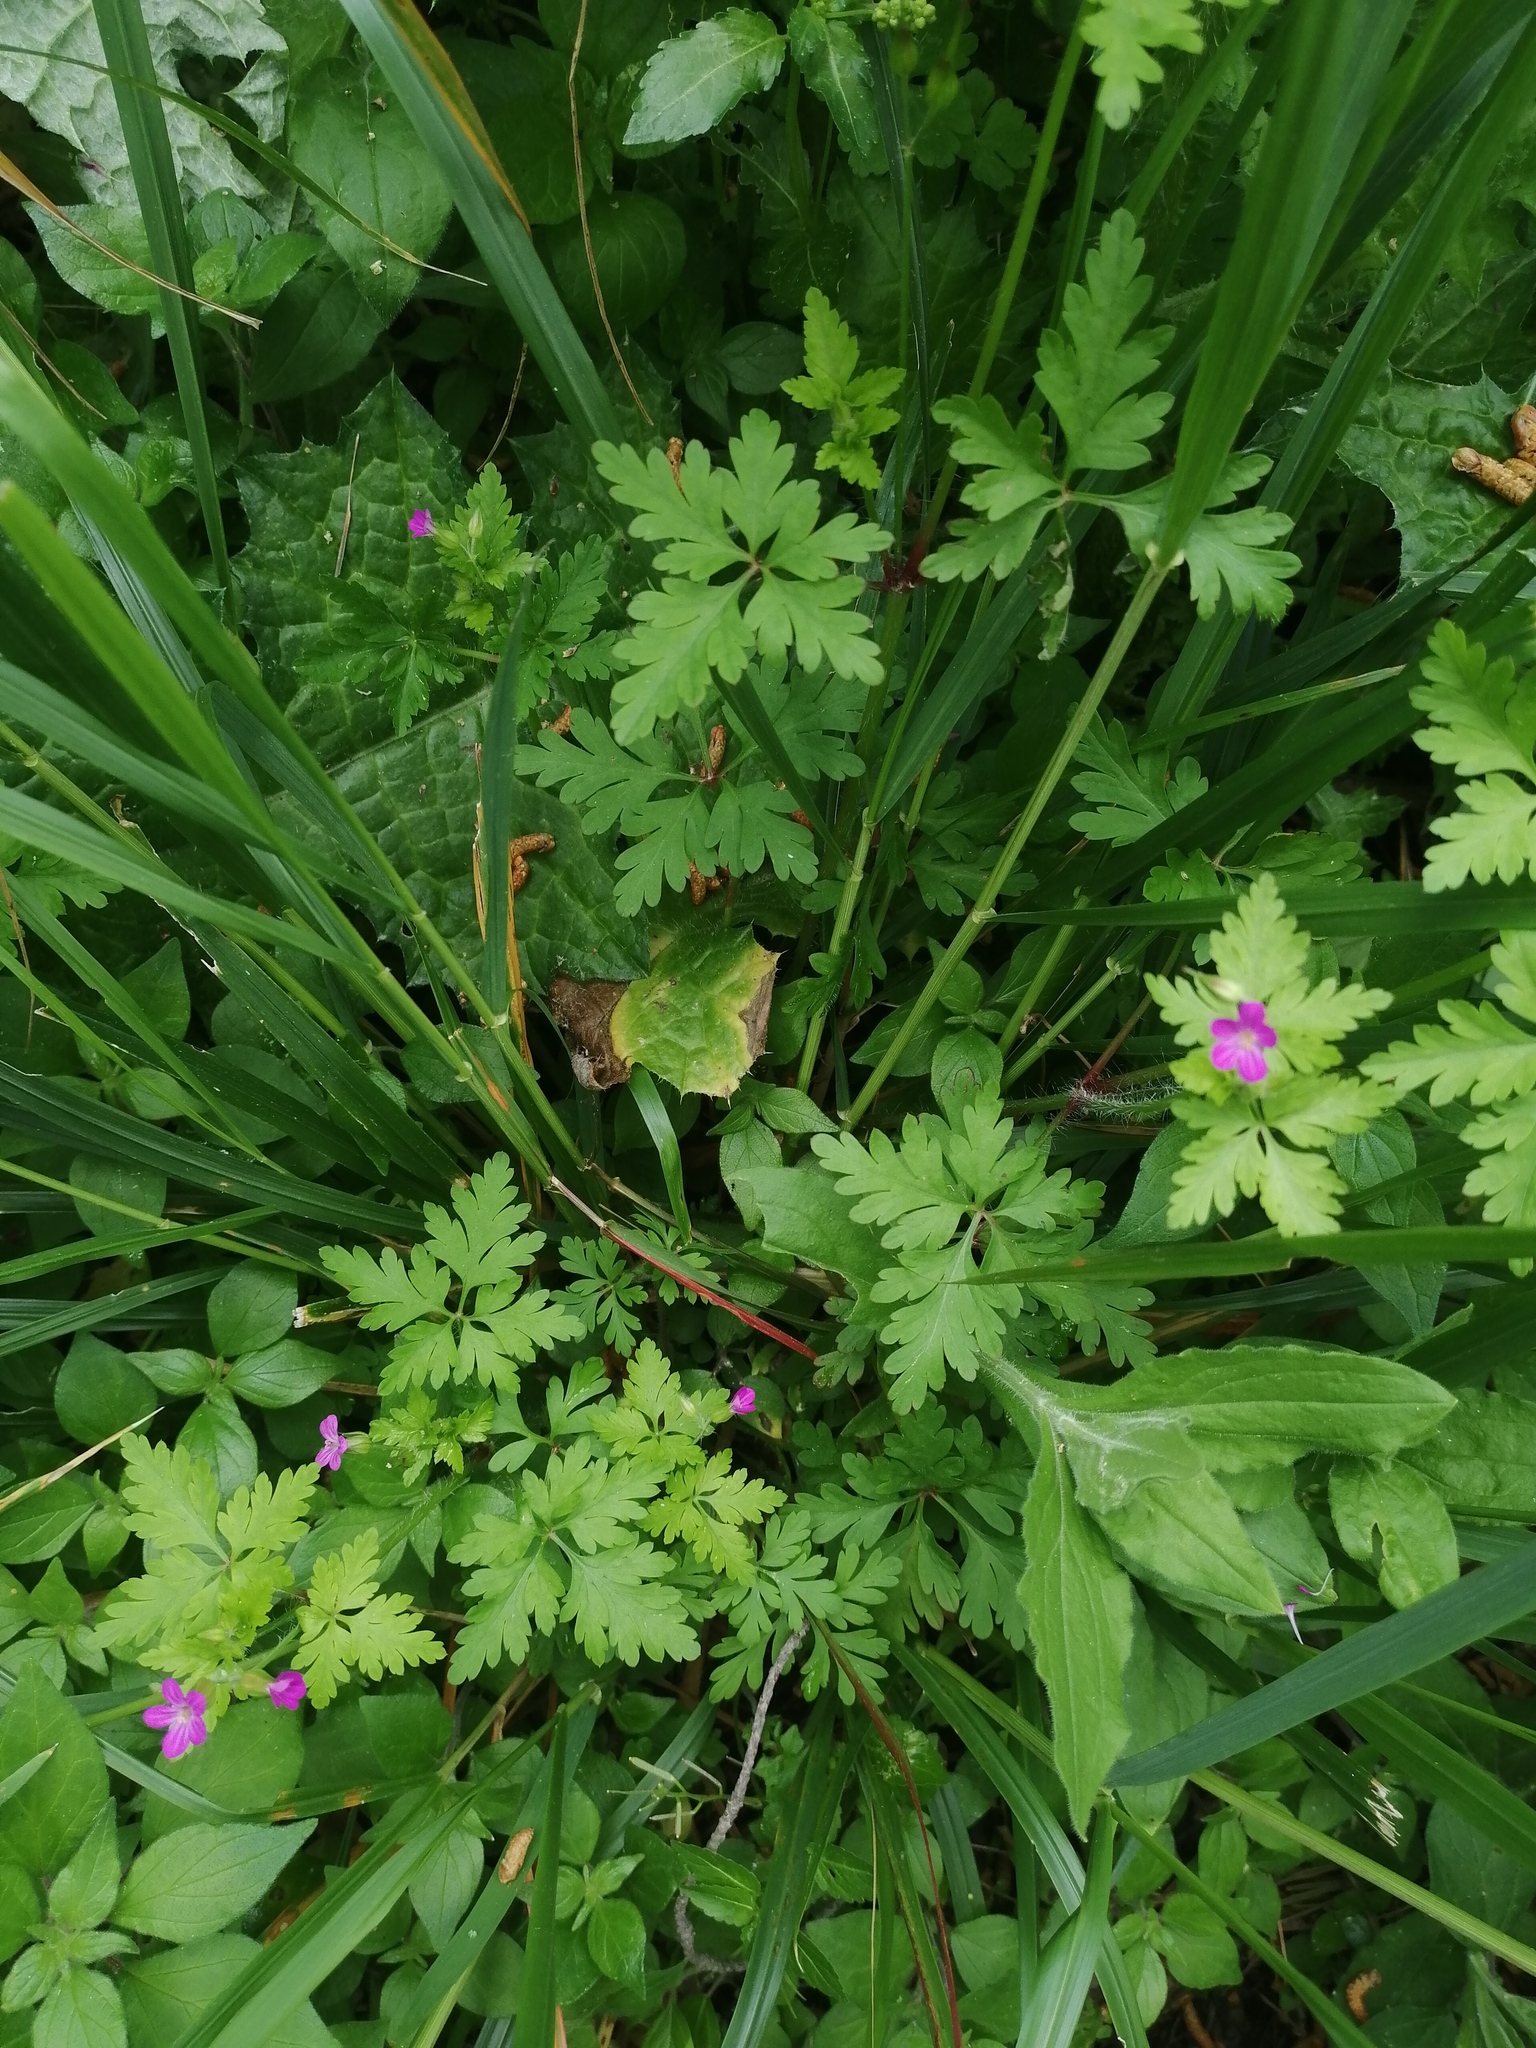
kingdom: Plantae
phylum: Tracheophyta
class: Magnoliopsida
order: Geraniales
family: Geraniaceae
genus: Geranium
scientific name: Geranium purpureum
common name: Little-robin
